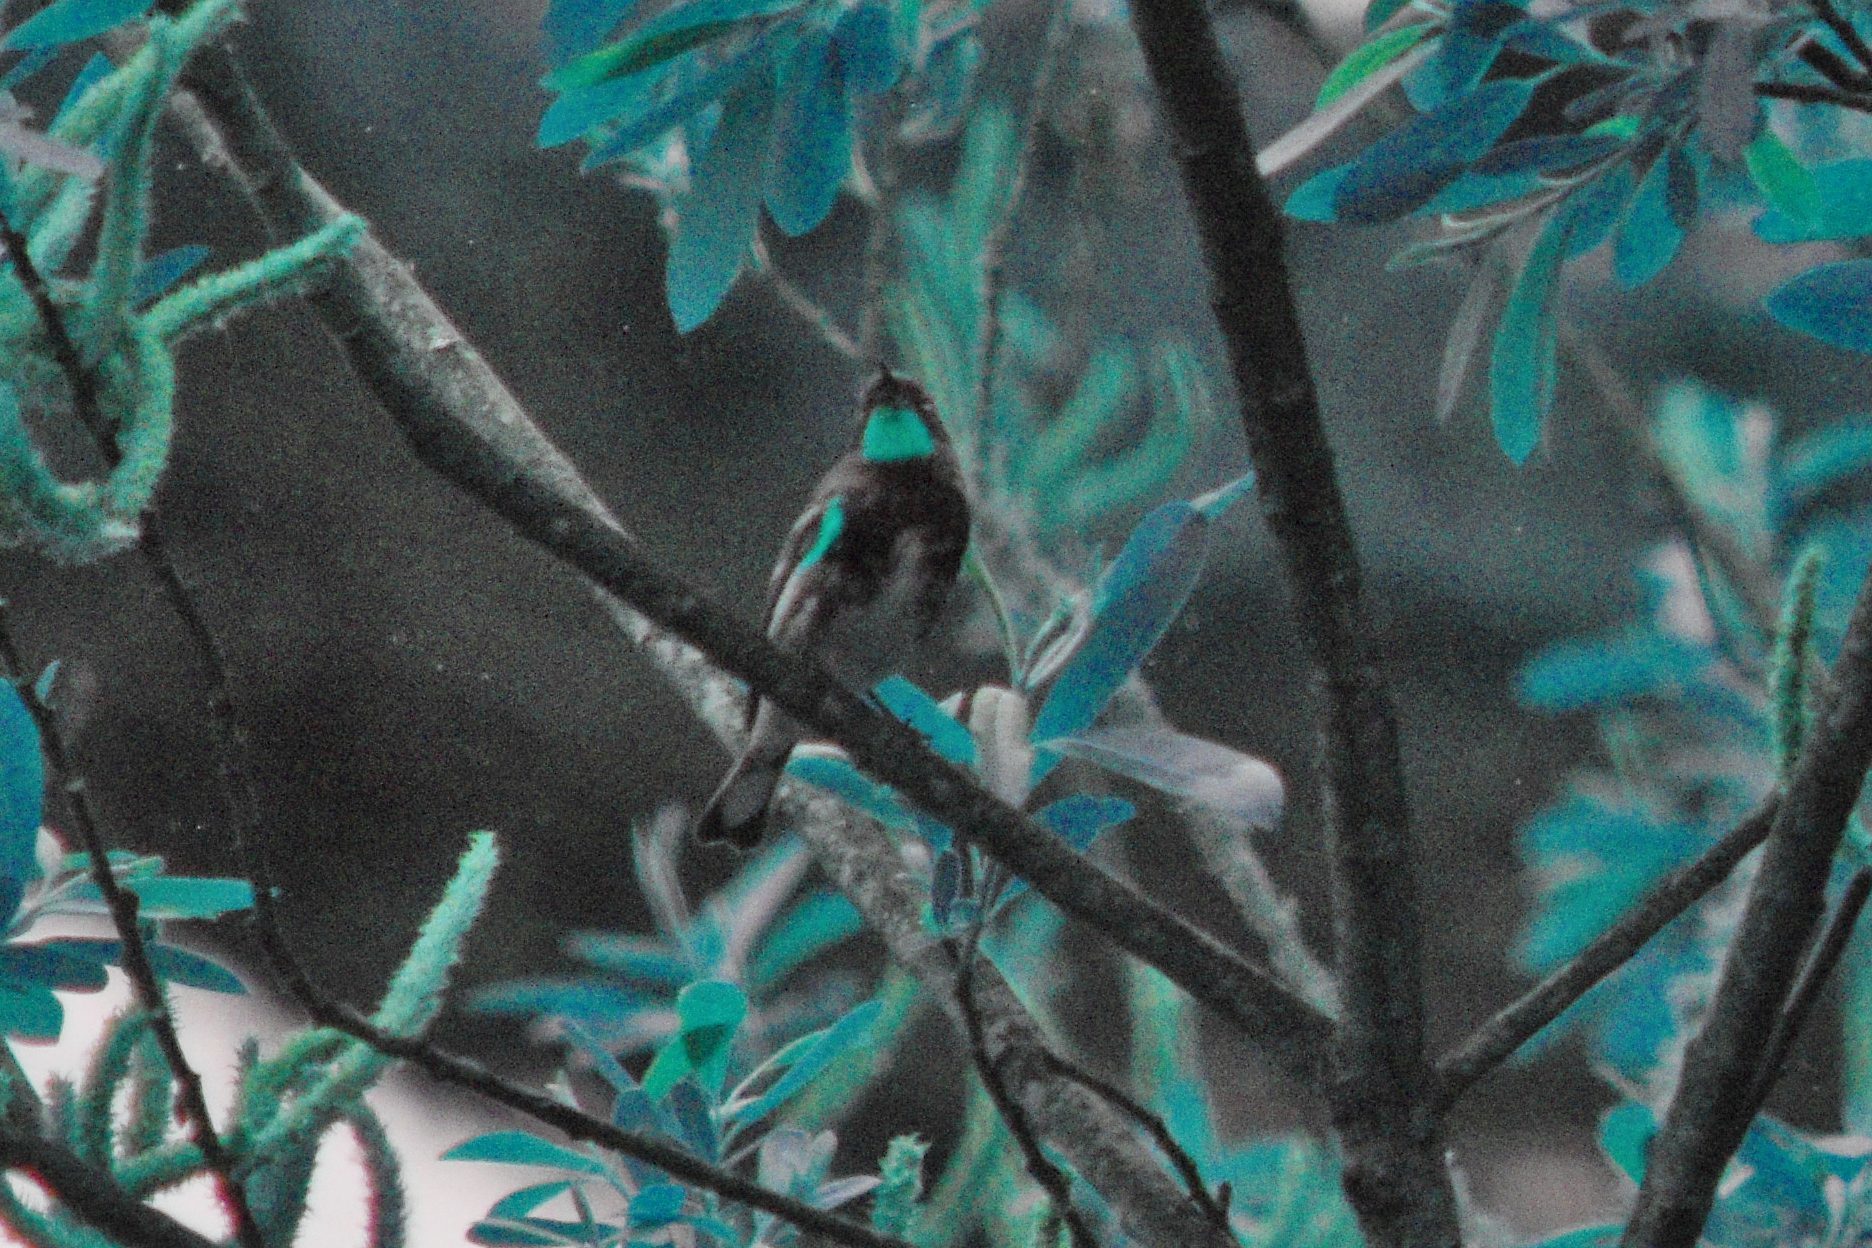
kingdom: Animalia
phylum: Chordata
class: Aves
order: Passeriformes
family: Parulidae
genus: Setophaga
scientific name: Setophaga auduboni
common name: Audubon's warbler
